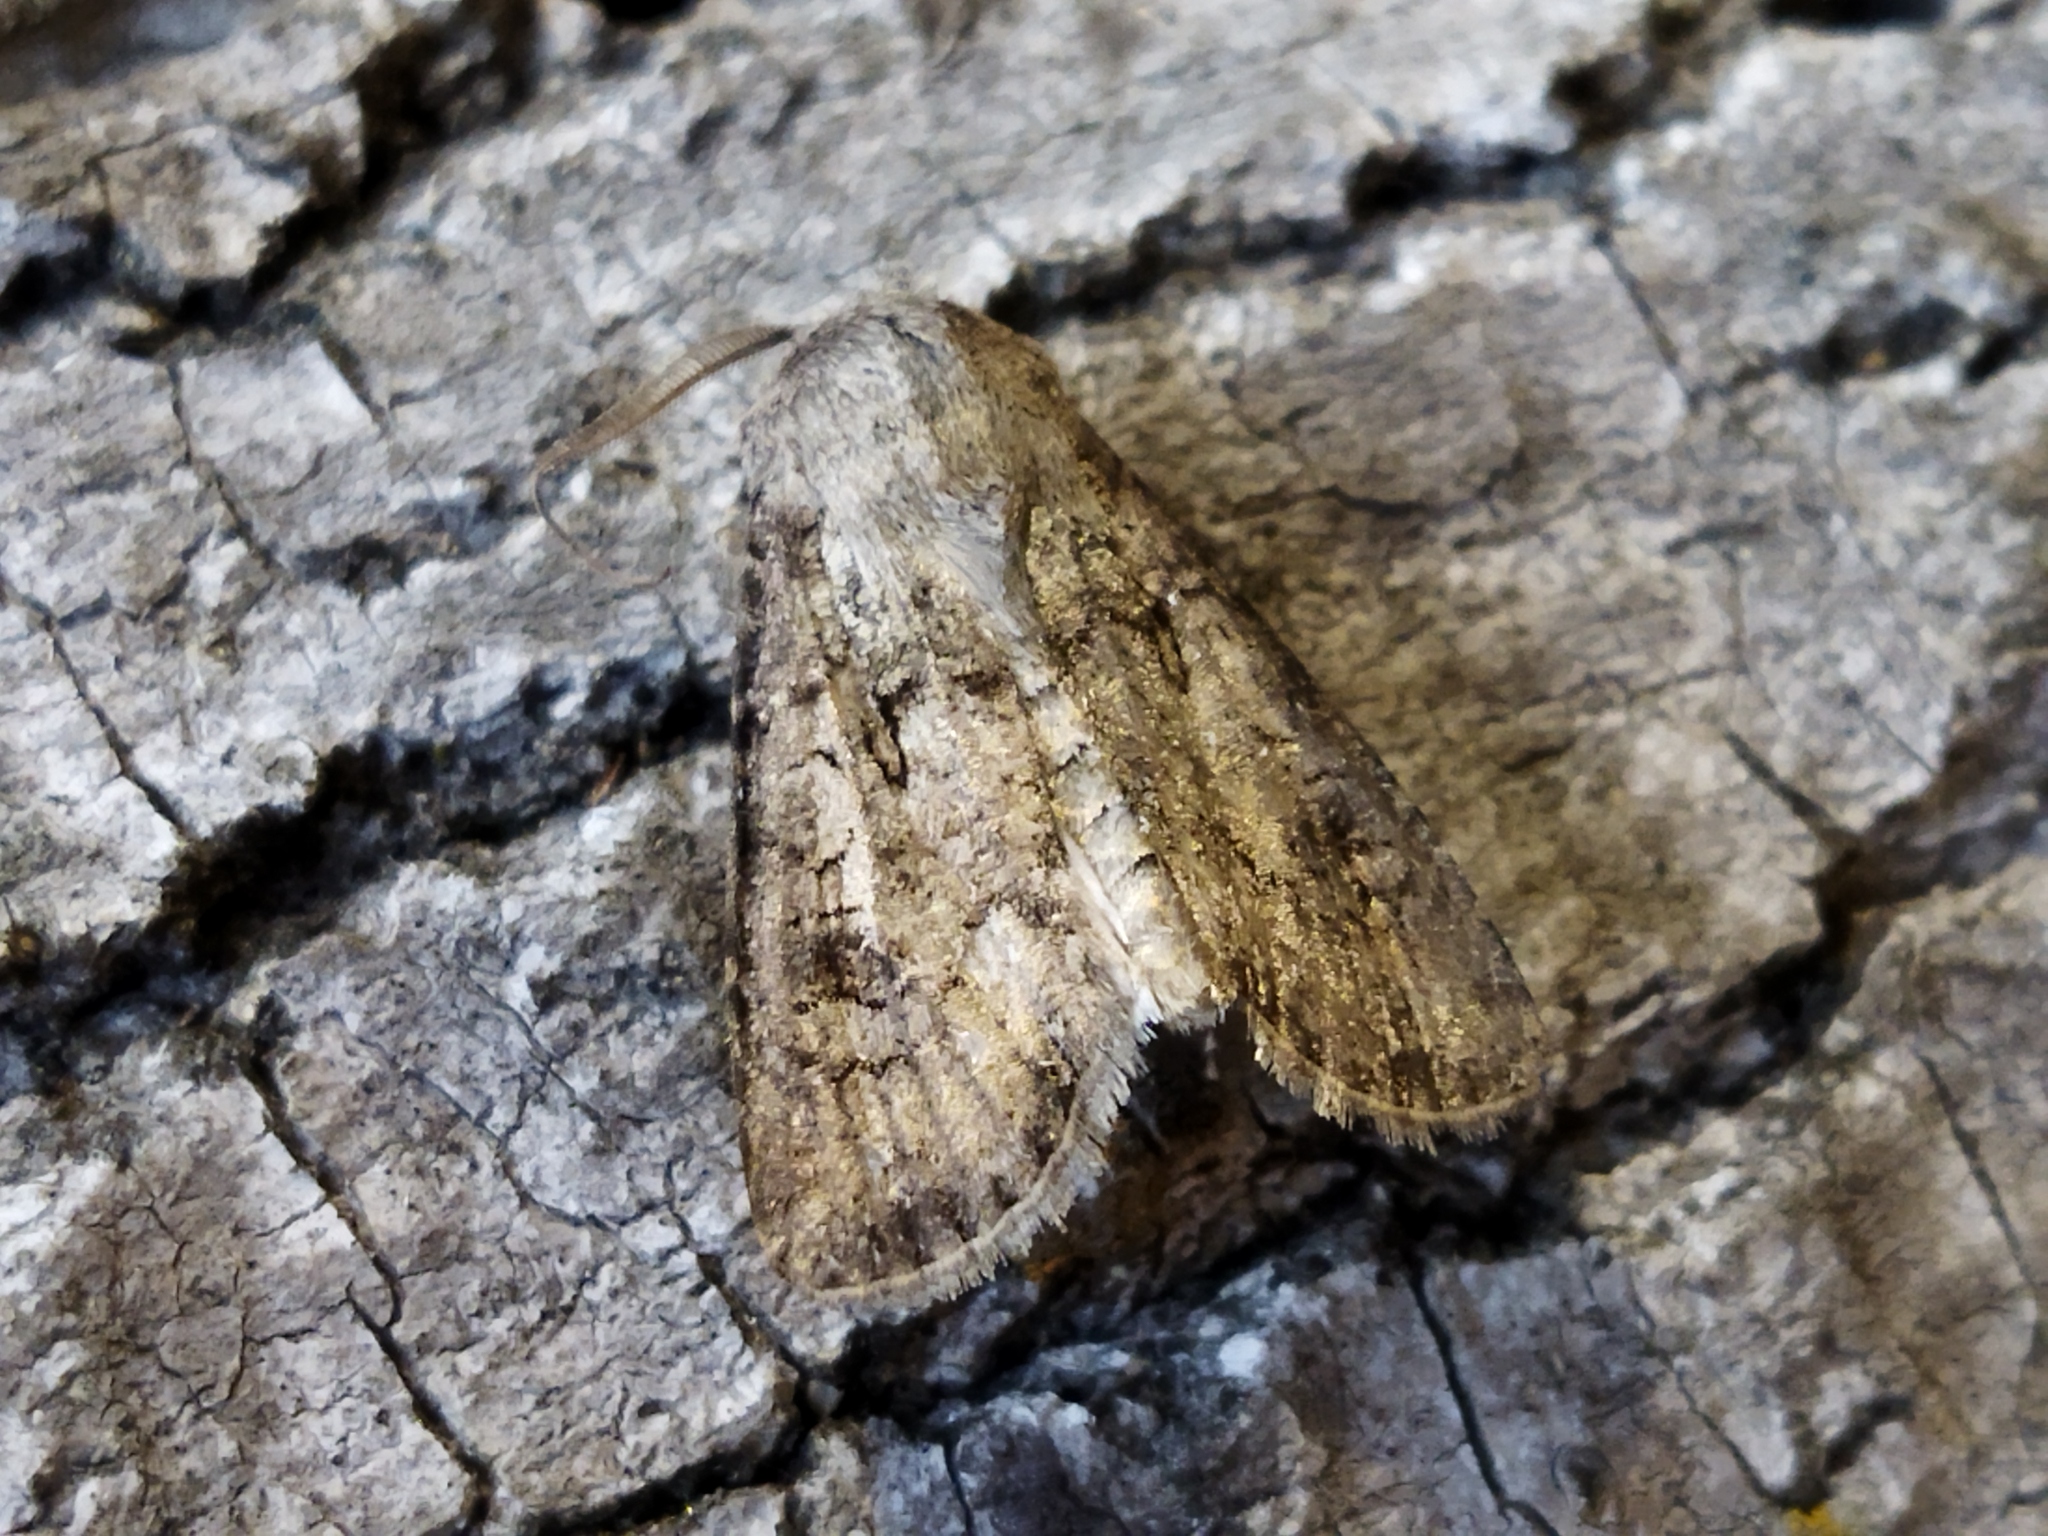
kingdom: Animalia
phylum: Arthropoda
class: Insecta
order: Lepidoptera
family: Noctuidae
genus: Agrotis
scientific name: Agrotis segetum
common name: Turnip moth
